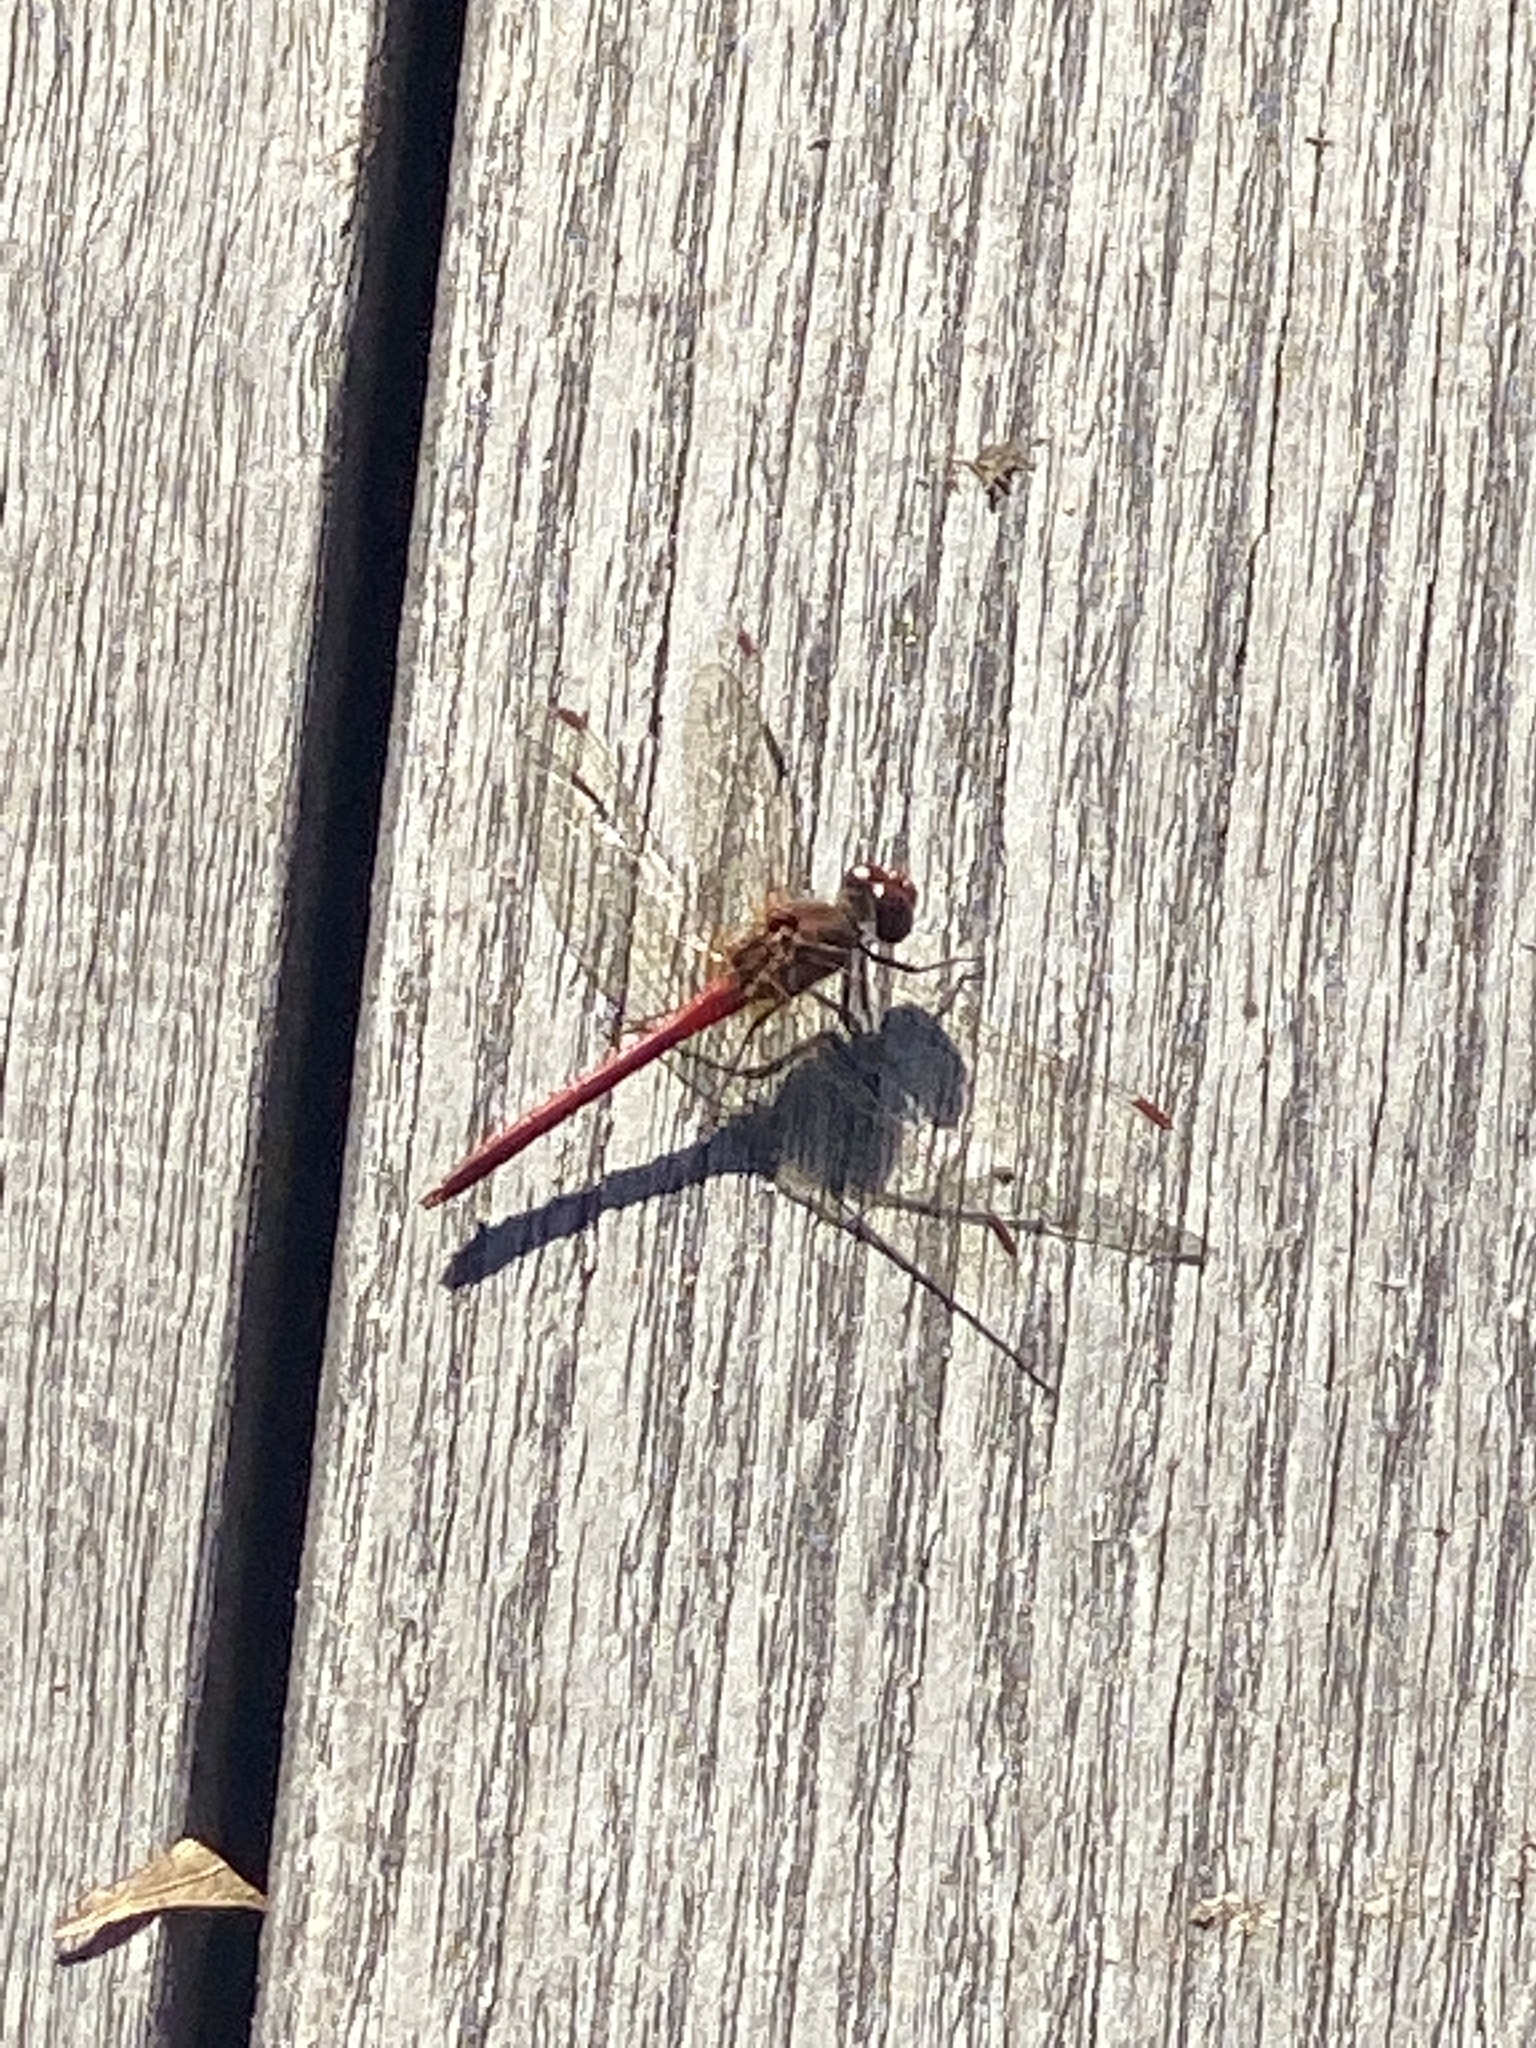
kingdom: Animalia
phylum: Arthropoda
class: Insecta
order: Odonata
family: Libellulidae
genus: Sympetrum
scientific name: Sympetrum vicinum
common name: Autumn meadowhawk
